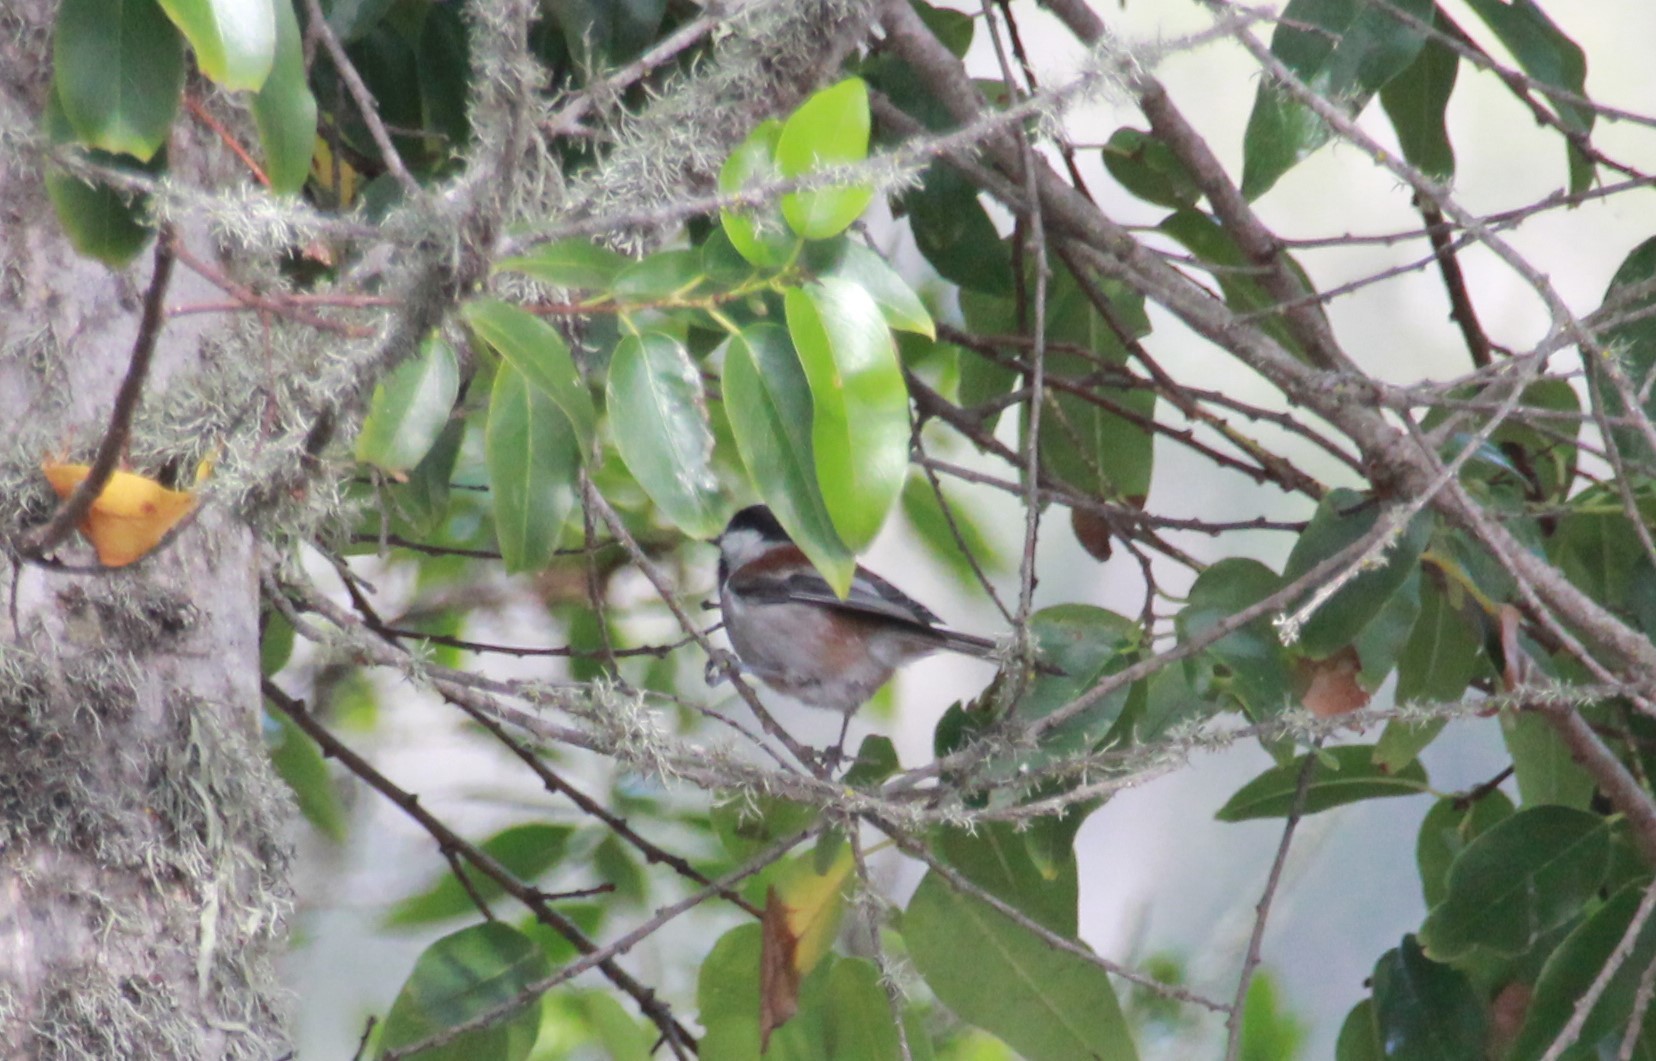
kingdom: Animalia
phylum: Chordata
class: Aves
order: Passeriformes
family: Paridae
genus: Poecile
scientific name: Poecile rufescens
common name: Chestnut-backed chickadee
